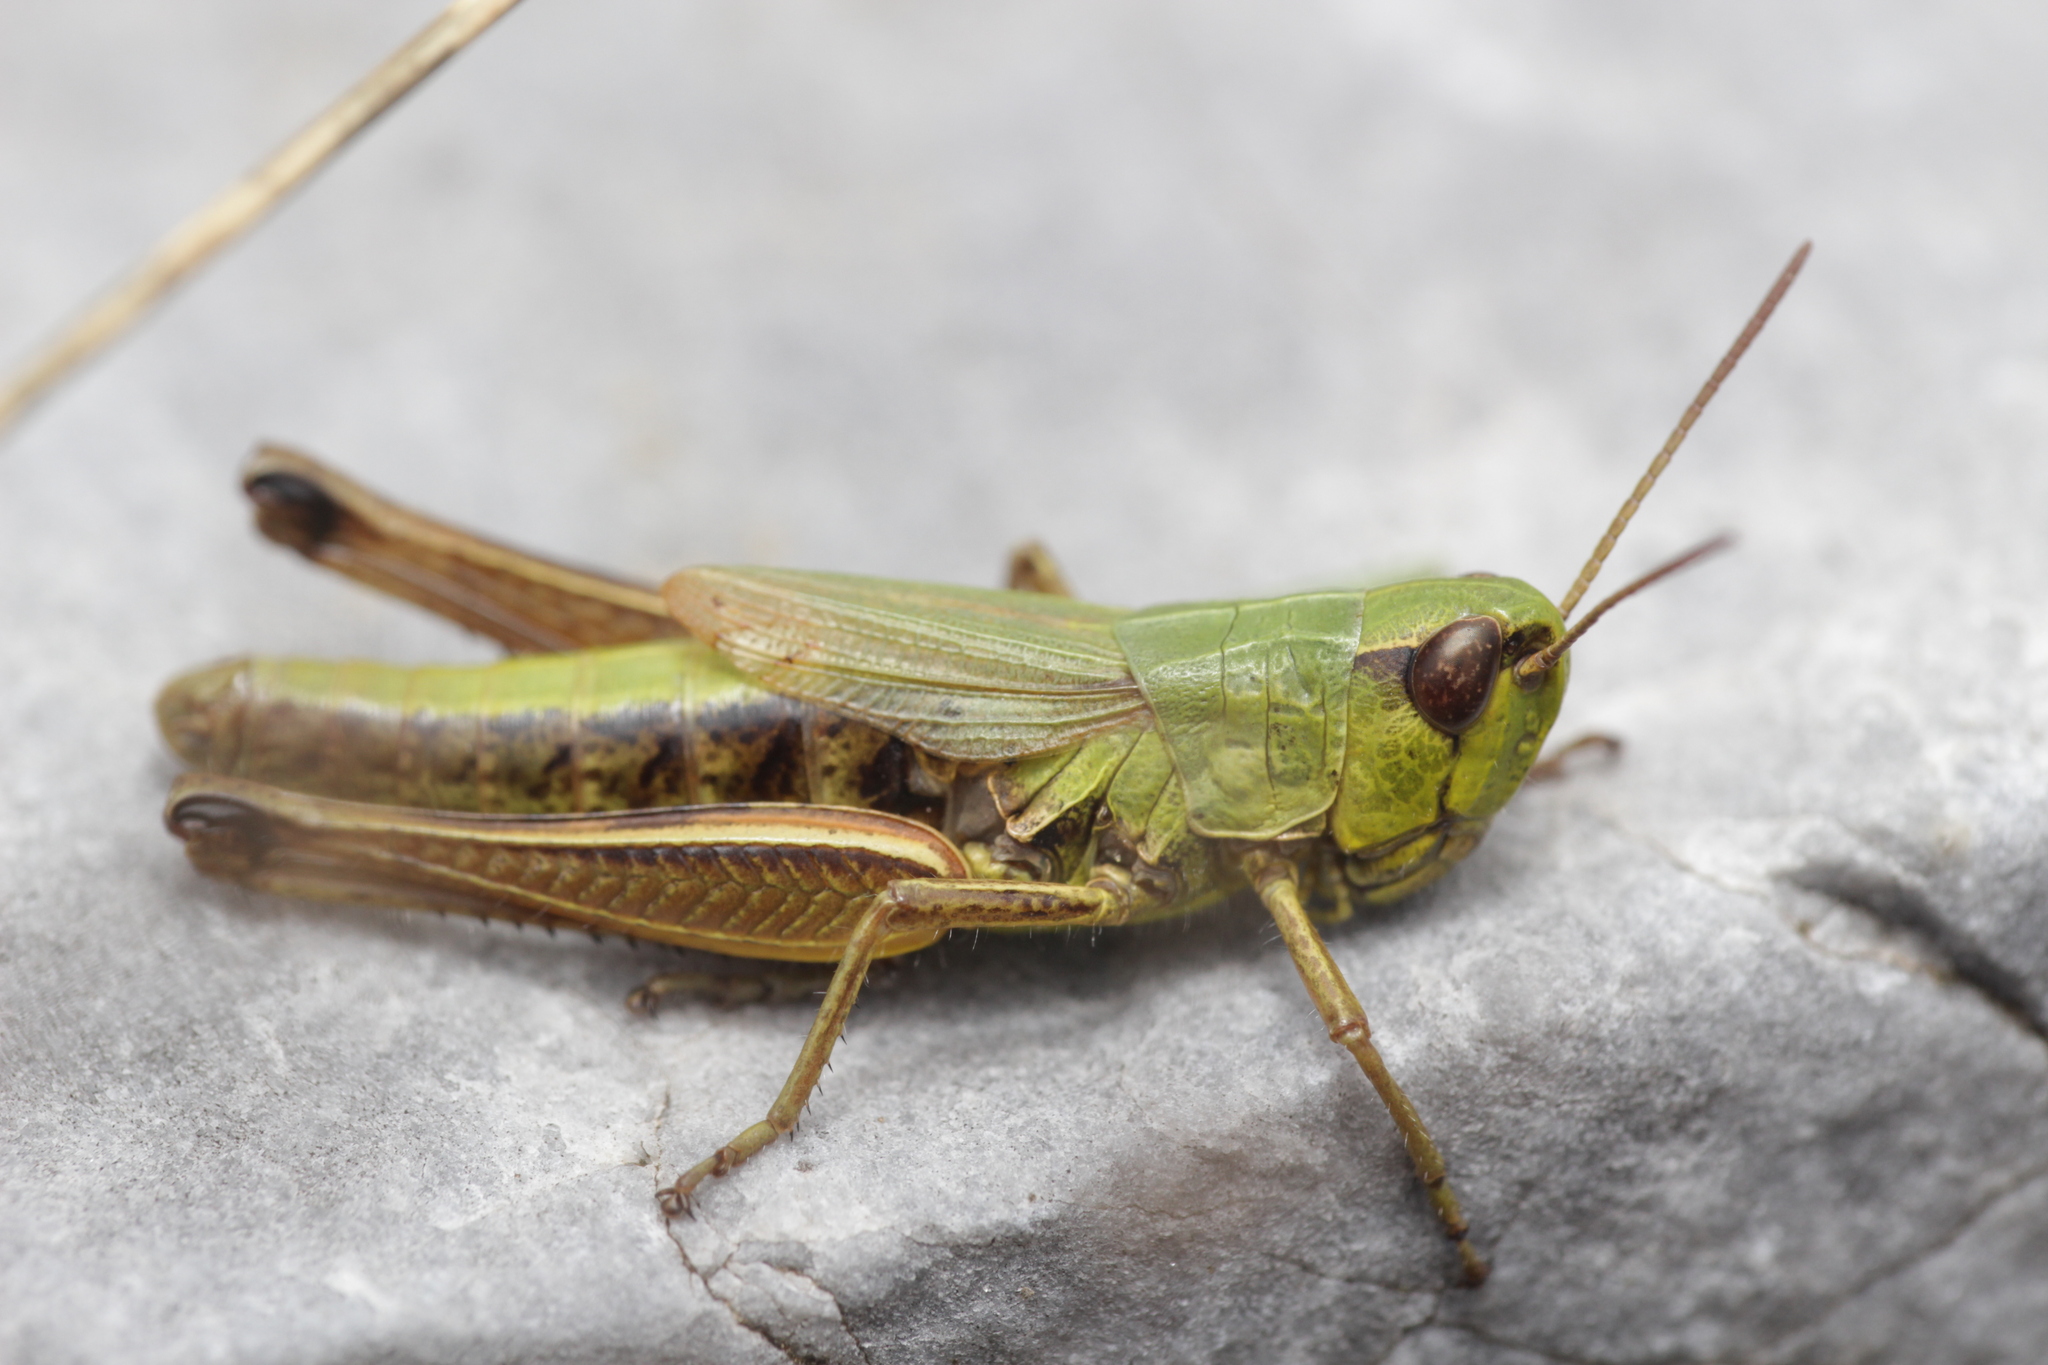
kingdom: Animalia
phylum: Arthropoda
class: Insecta
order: Orthoptera
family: Acrididae
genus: Pseudochorthippus
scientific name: Pseudochorthippus parallelus
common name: Meadow grasshopper
